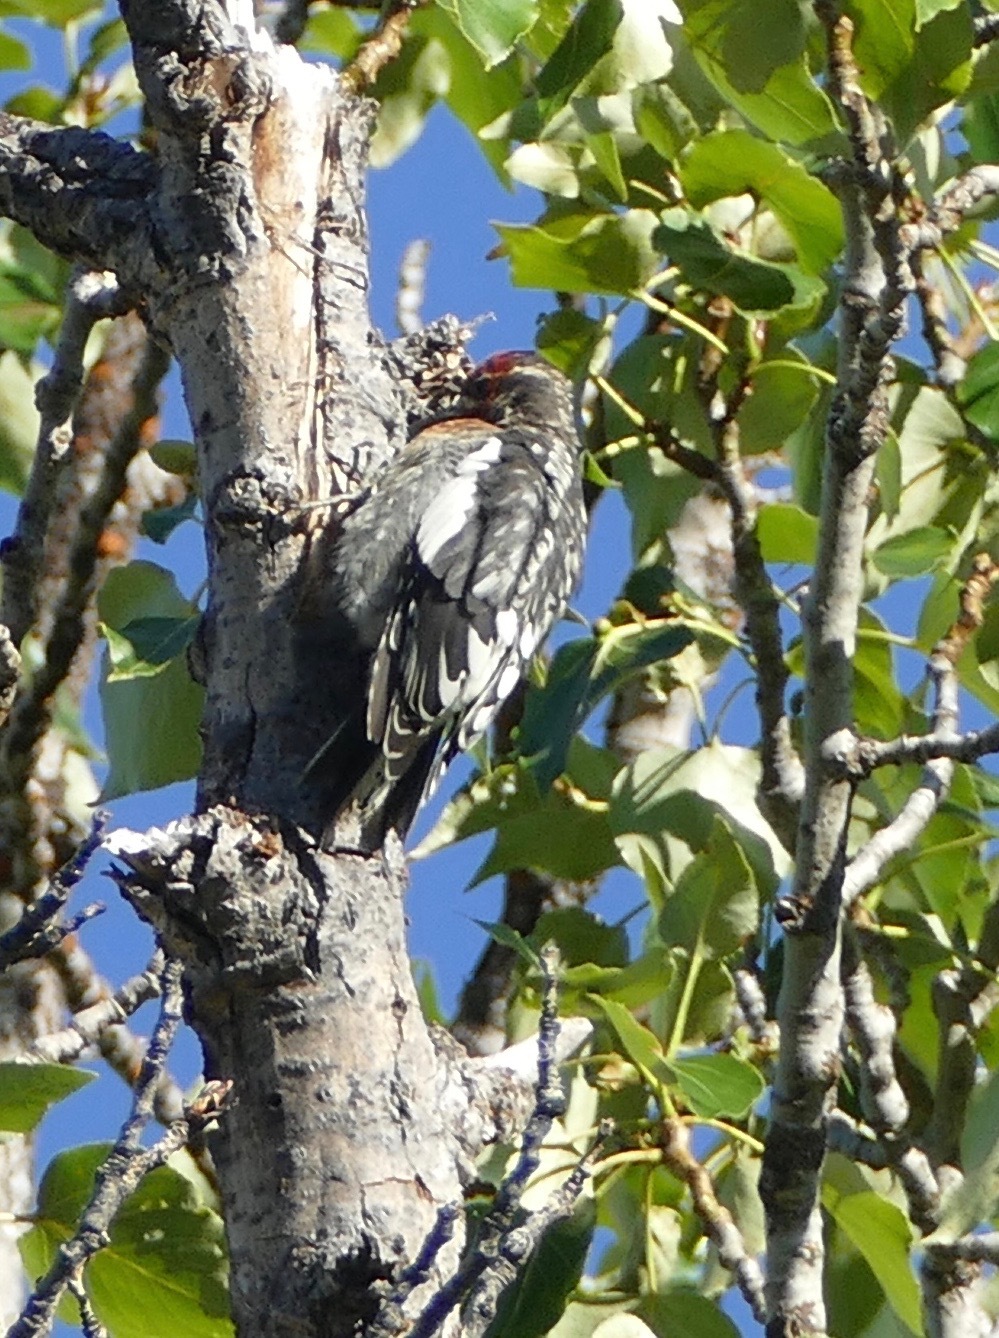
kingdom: Animalia
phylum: Chordata
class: Aves
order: Piciformes
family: Picidae
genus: Sphyrapicus
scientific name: Sphyrapicus ruber
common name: Red-breasted sapsucker
